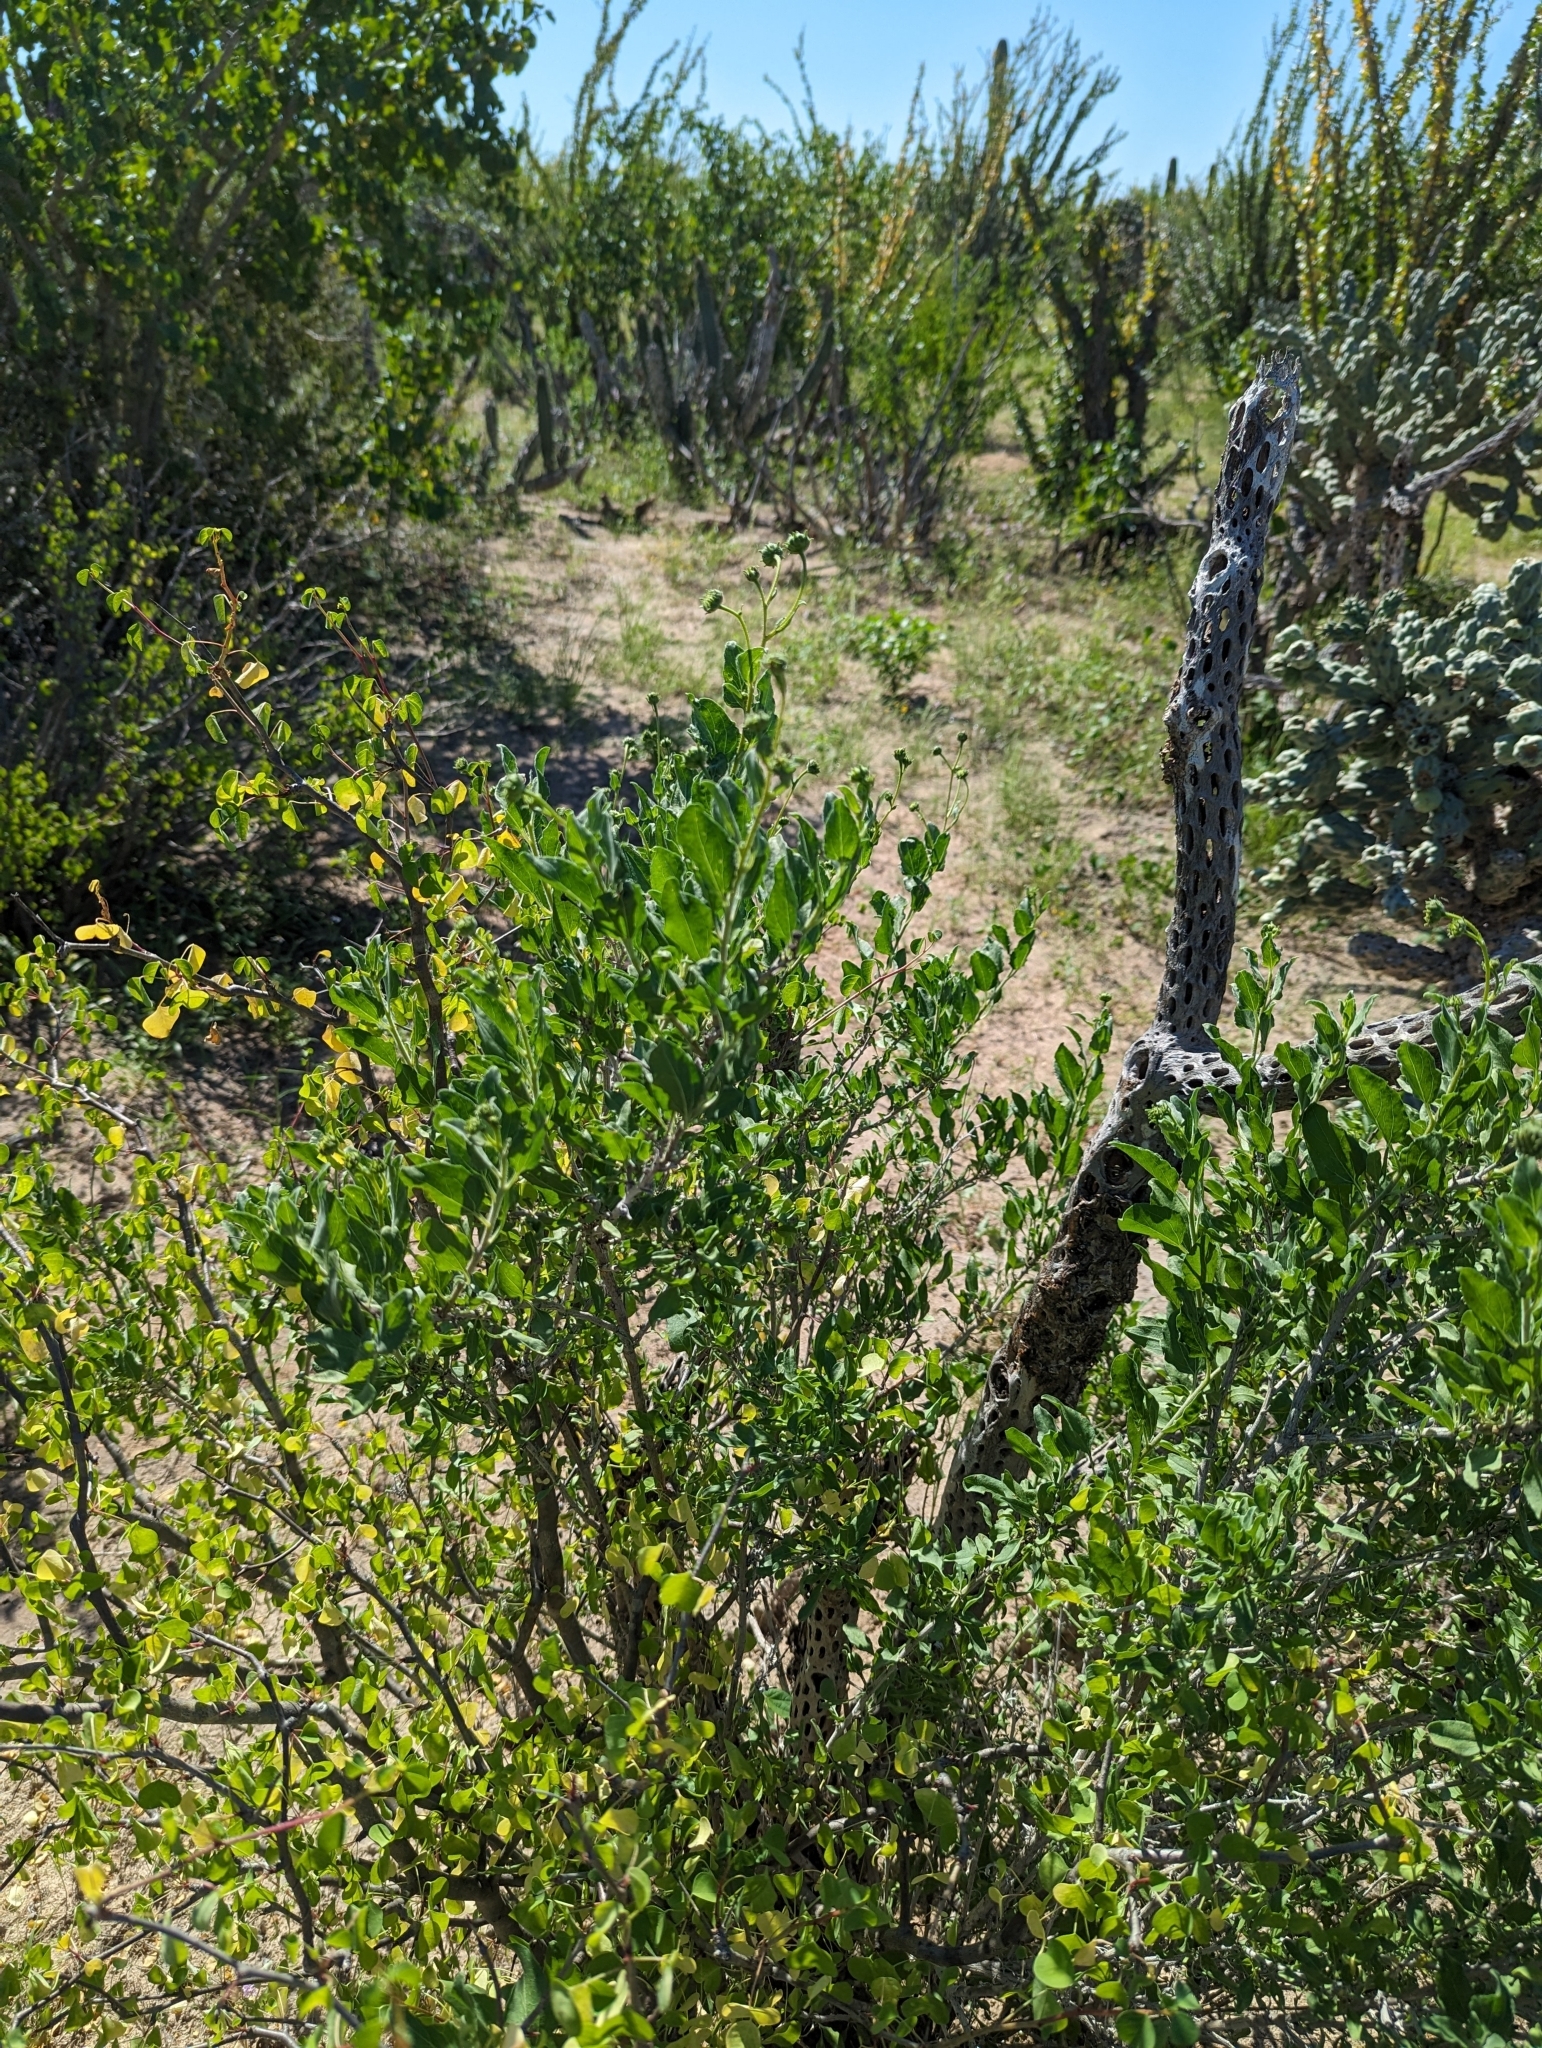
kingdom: Plantae
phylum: Tracheophyta
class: Magnoliopsida
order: Asterales
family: Asteraceae
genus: Encelia
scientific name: Encelia palmeri
